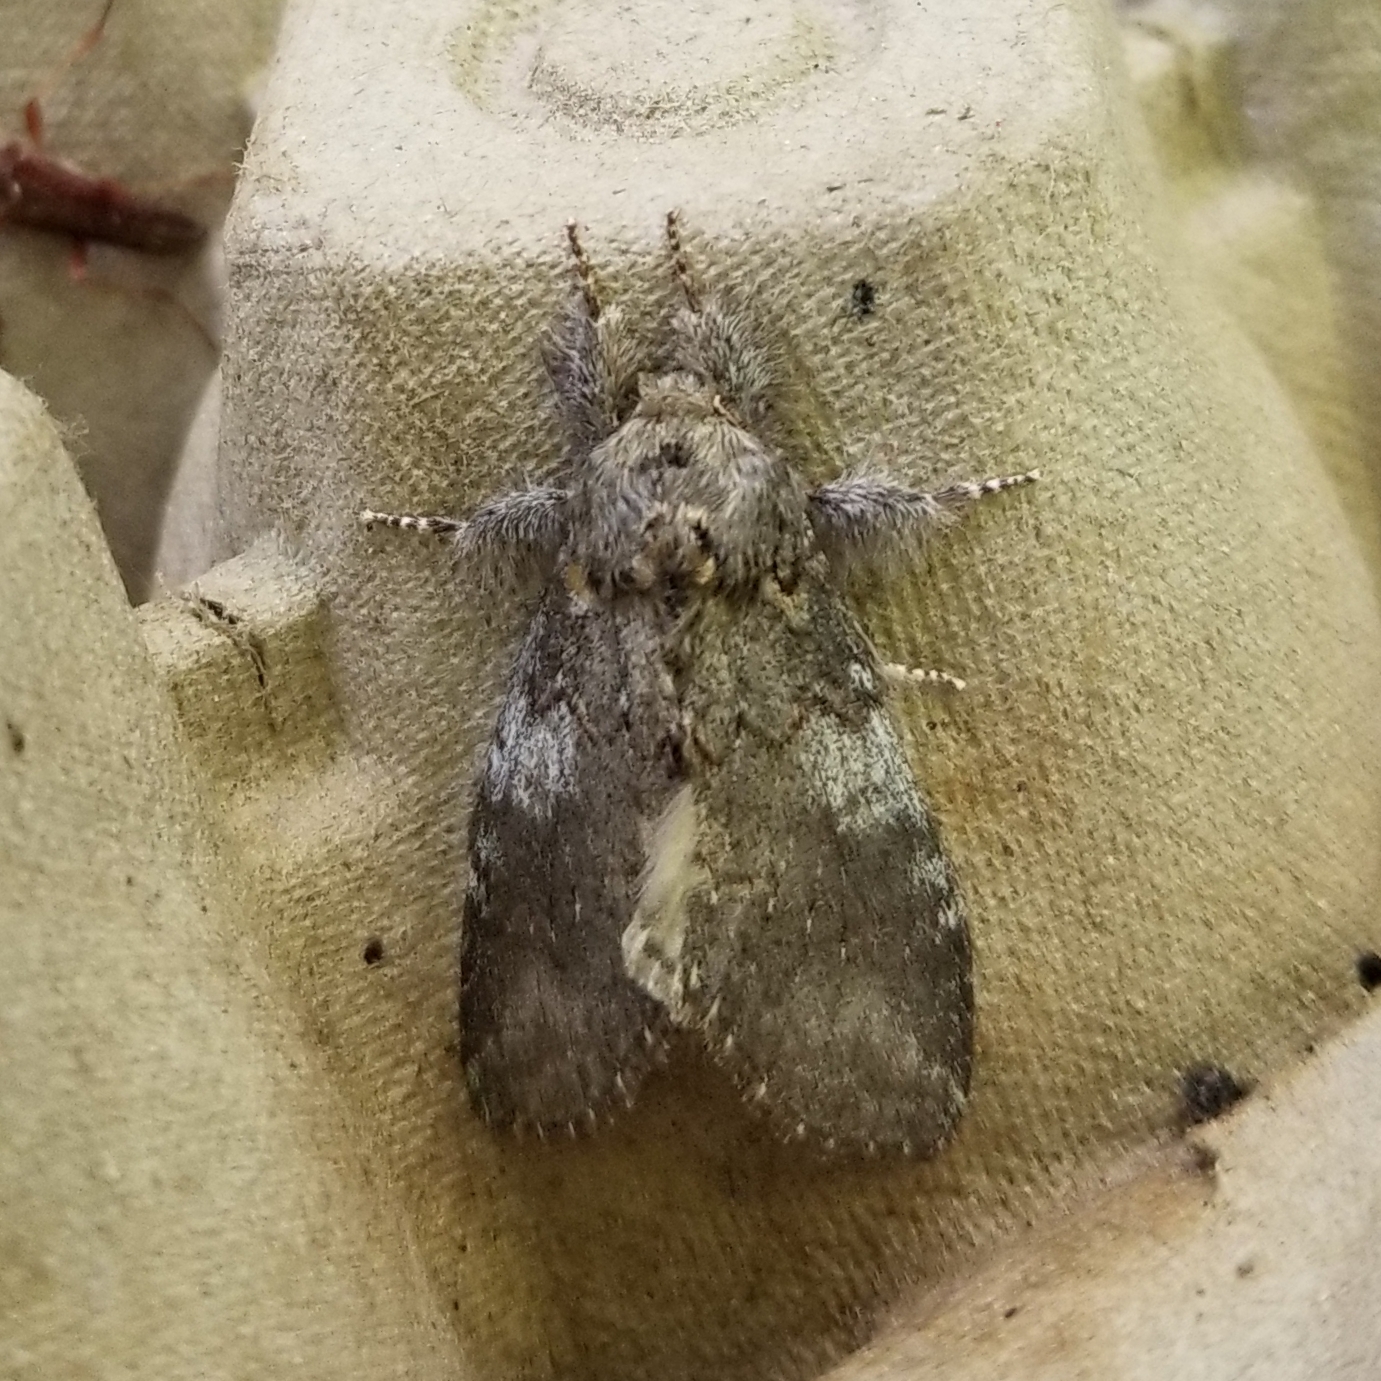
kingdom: Animalia
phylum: Arthropoda
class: Insecta
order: Lepidoptera
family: Notodontidae
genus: Peridea
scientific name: Peridea angulosa
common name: Angulose prominent
